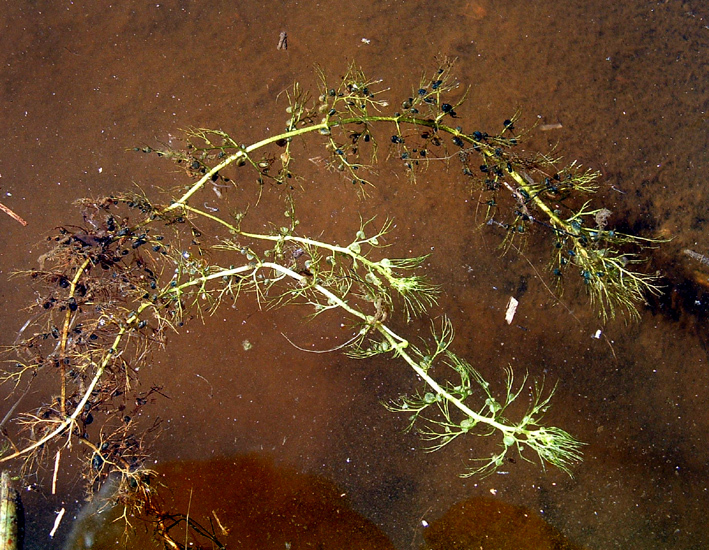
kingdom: Plantae
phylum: Tracheophyta
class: Magnoliopsida
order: Lamiales
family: Lentibulariaceae
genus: Utricularia
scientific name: Utricularia australis
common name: Bladderwort
